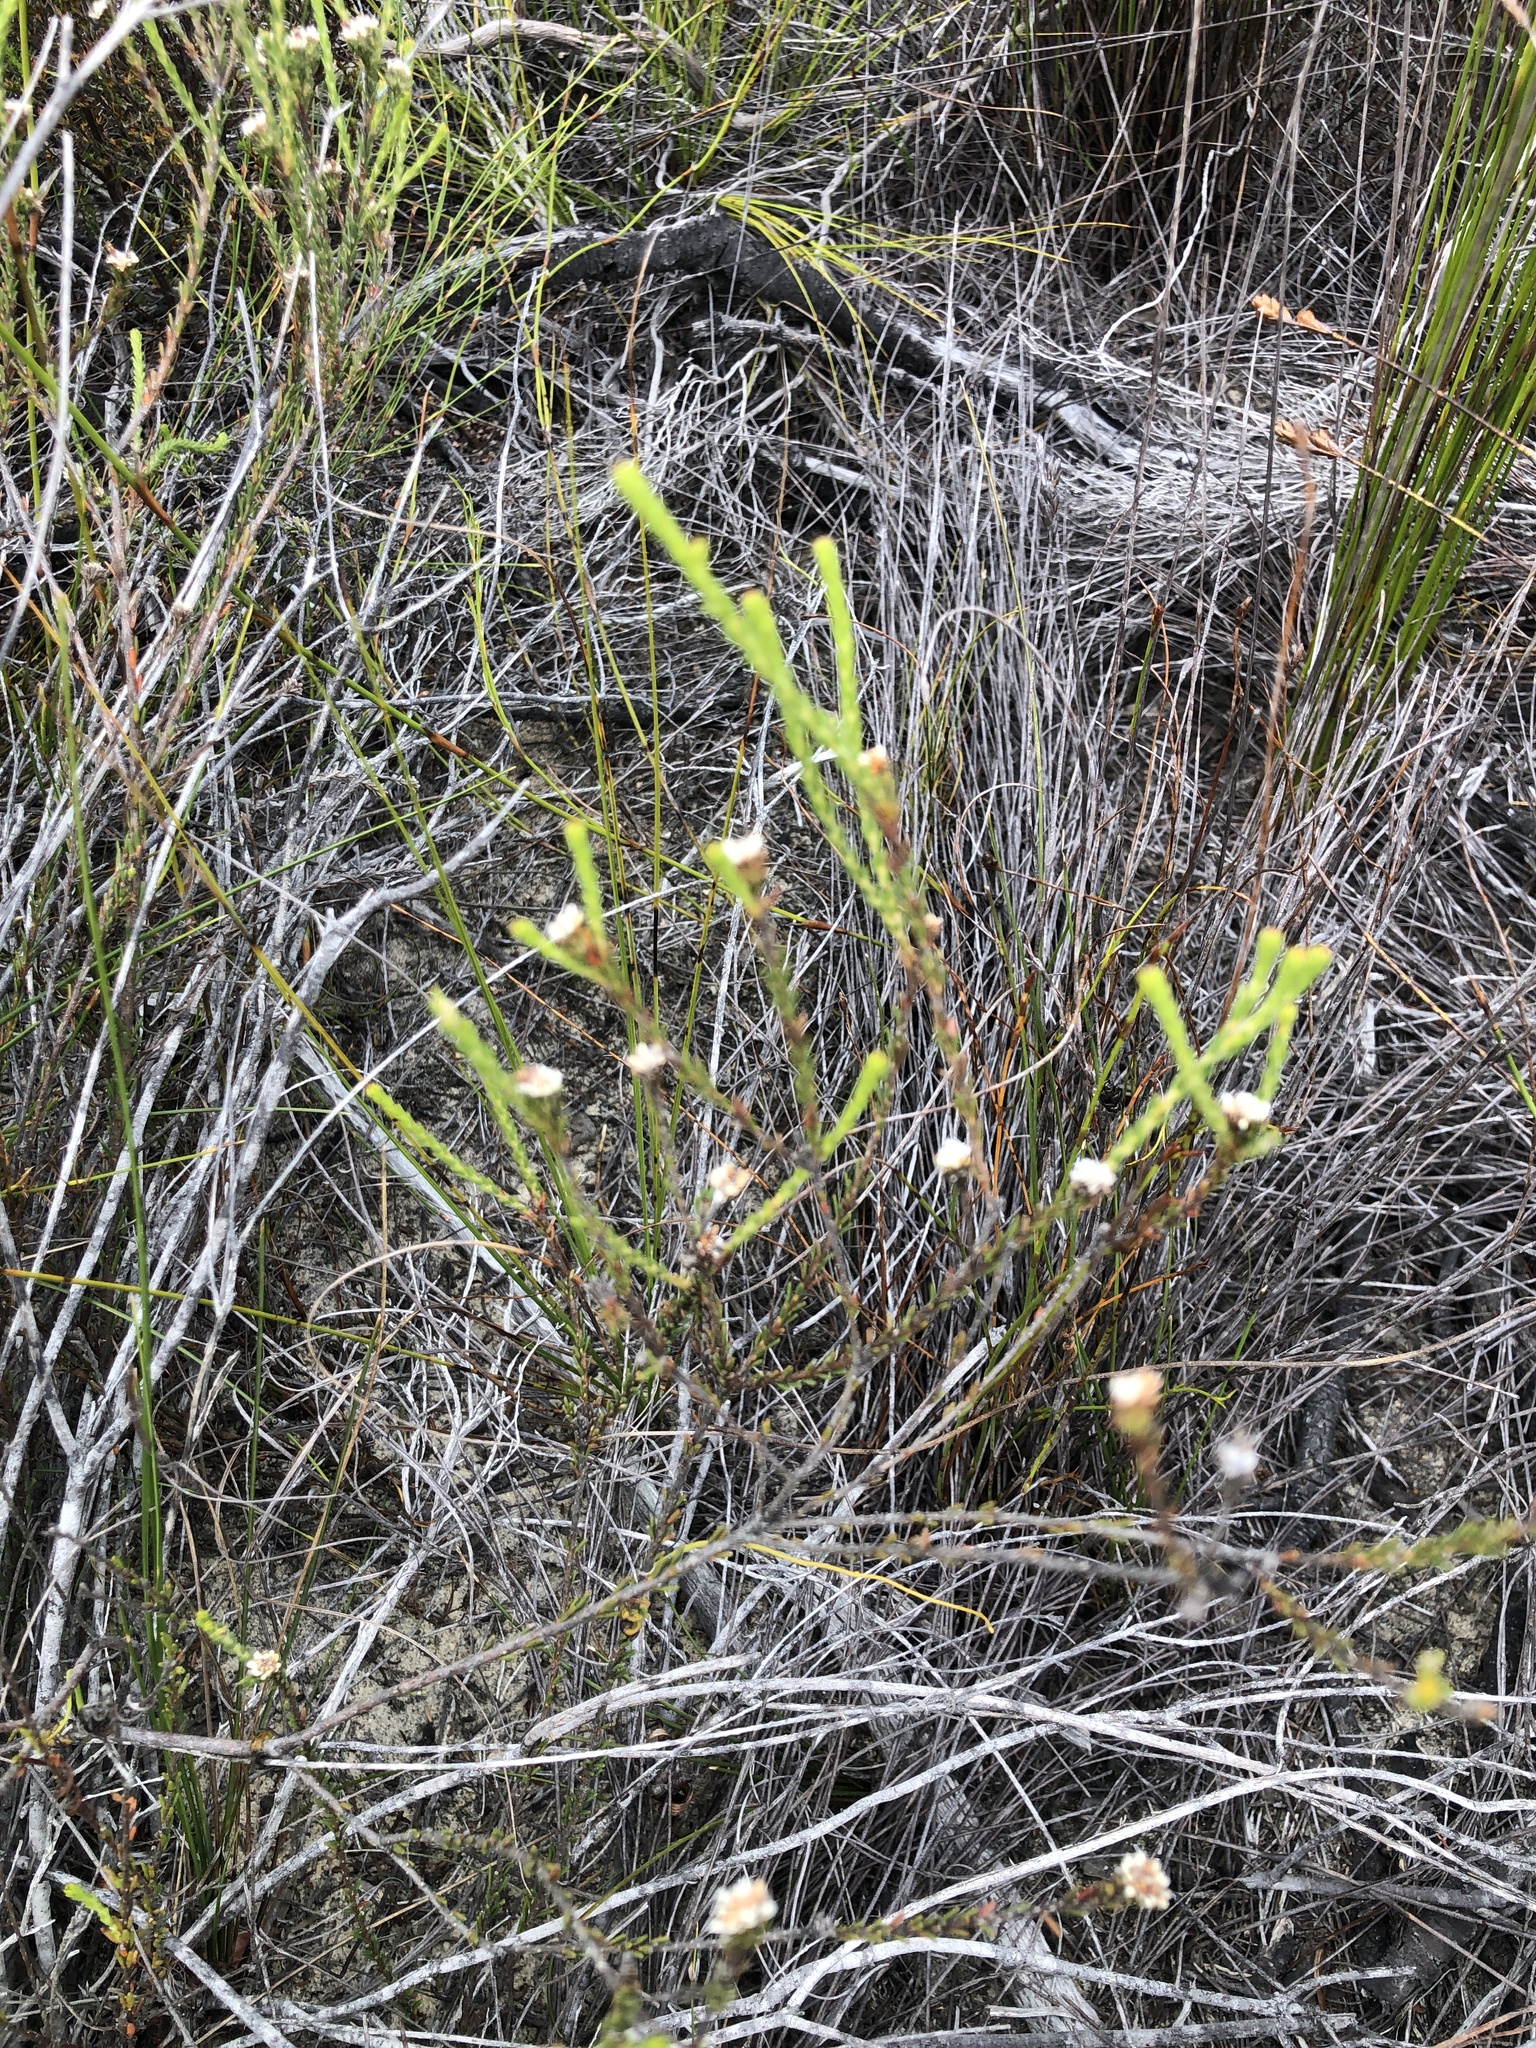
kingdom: Plantae
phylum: Tracheophyta
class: Magnoliopsida
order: Bruniales
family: Bruniaceae
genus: Staavia
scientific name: Staavia radiata
